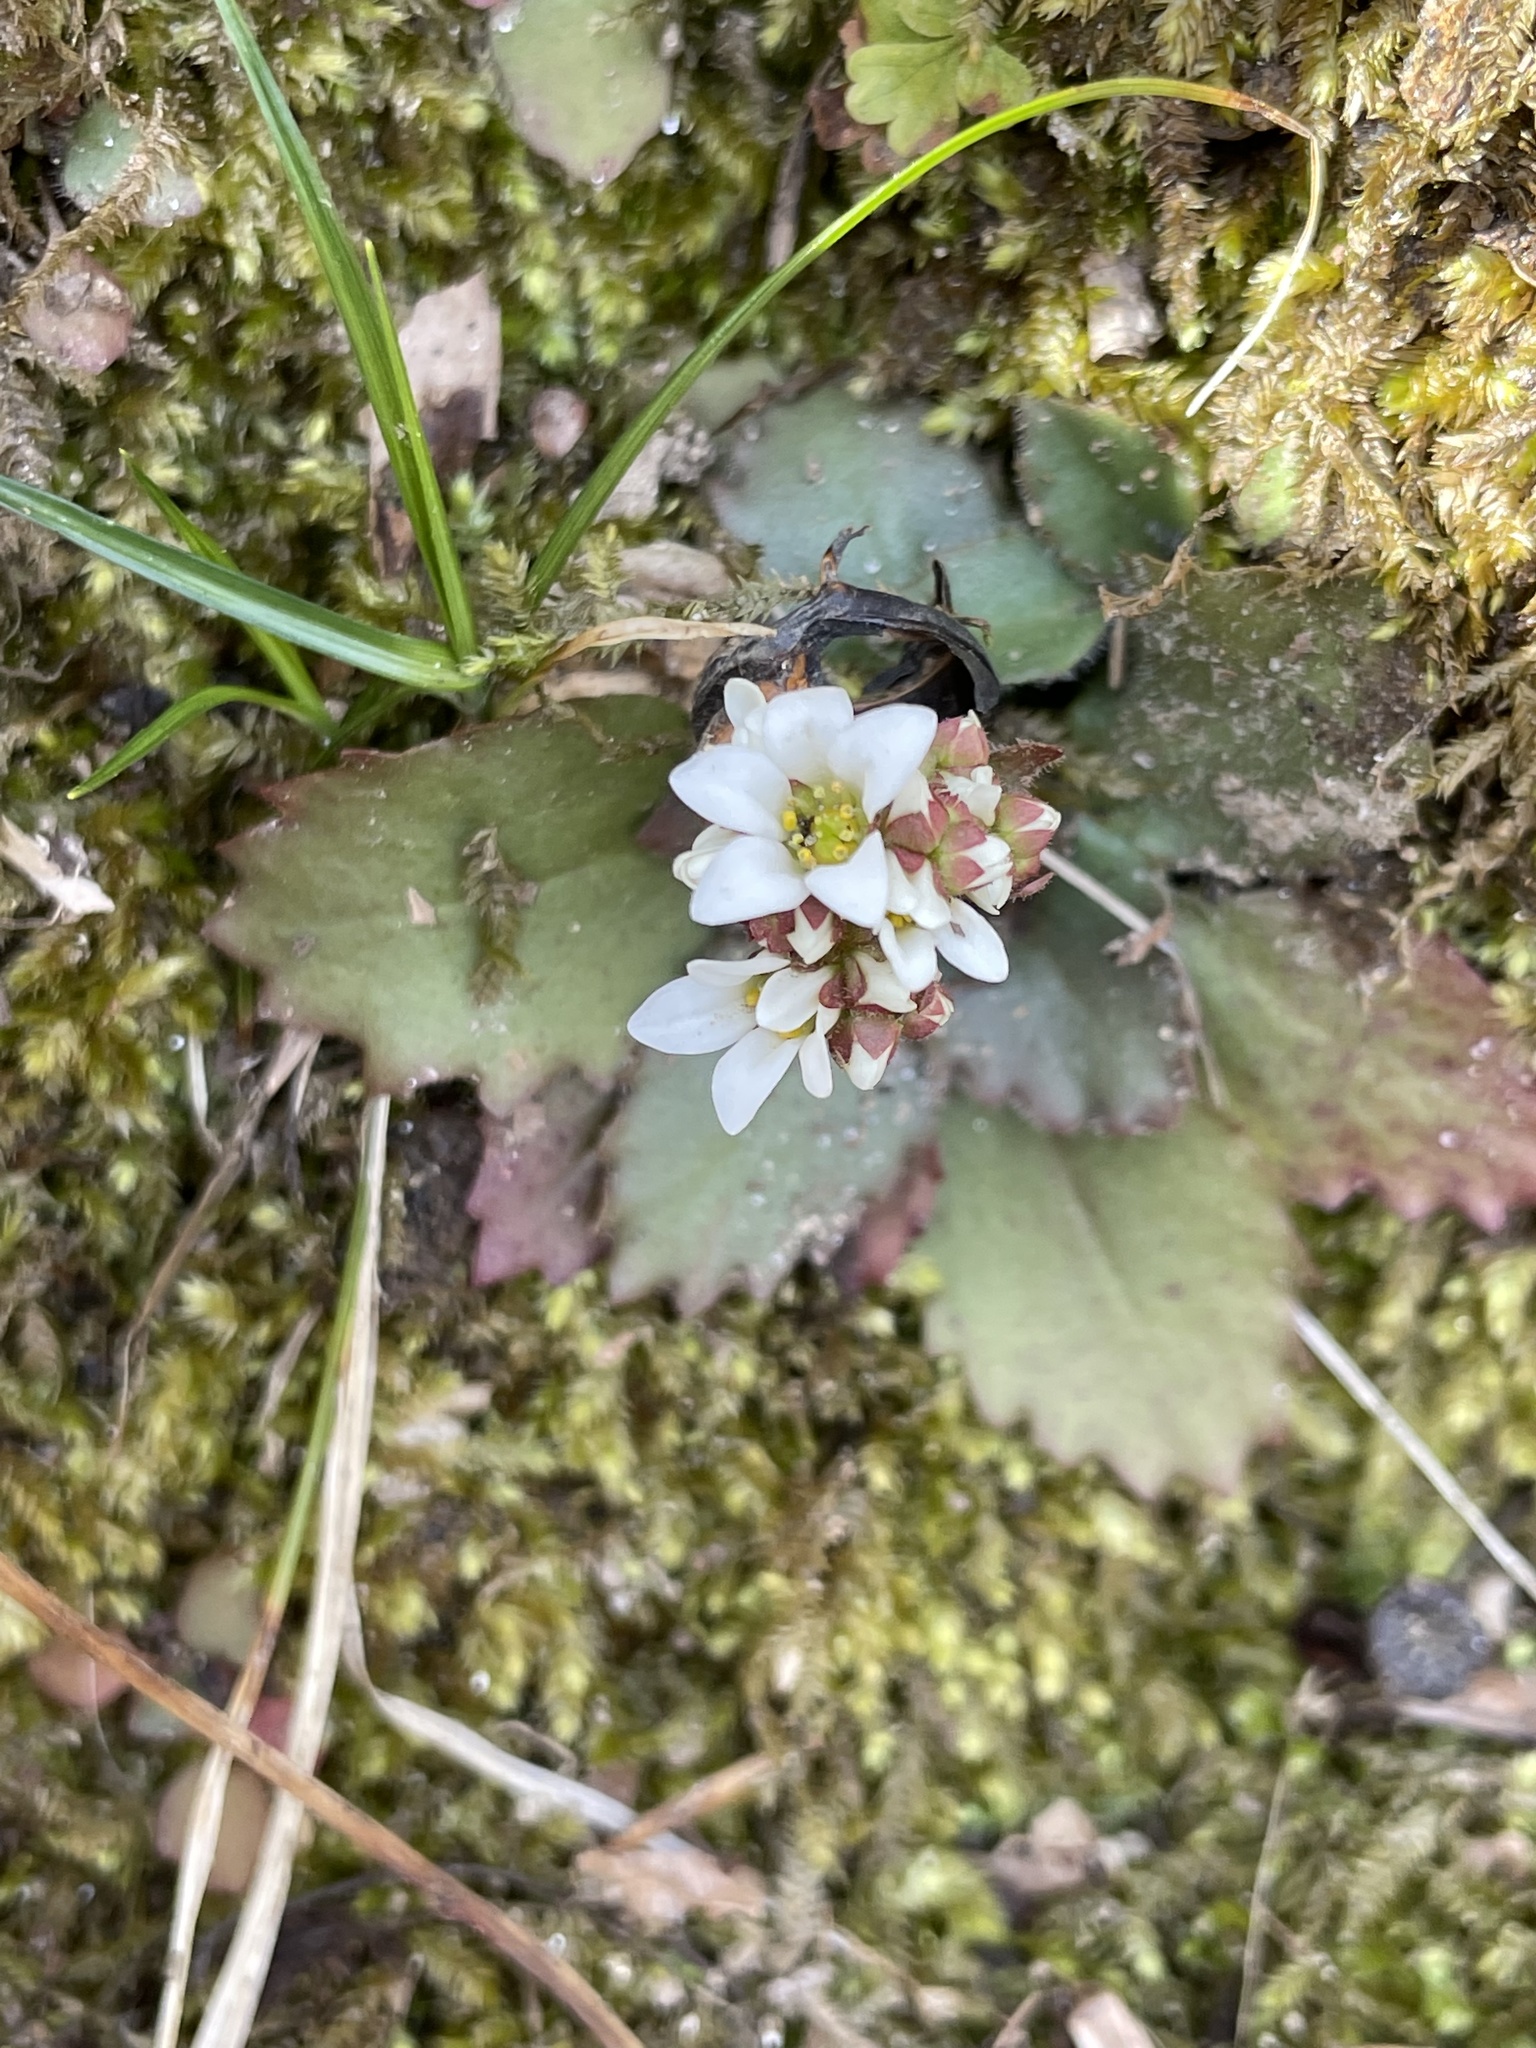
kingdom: Plantae
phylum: Tracheophyta
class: Magnoliopsida
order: Saxifragales
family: Saxifragaceae
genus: Micranthes
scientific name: Micranthes virginiensis
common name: Early saxifrage
